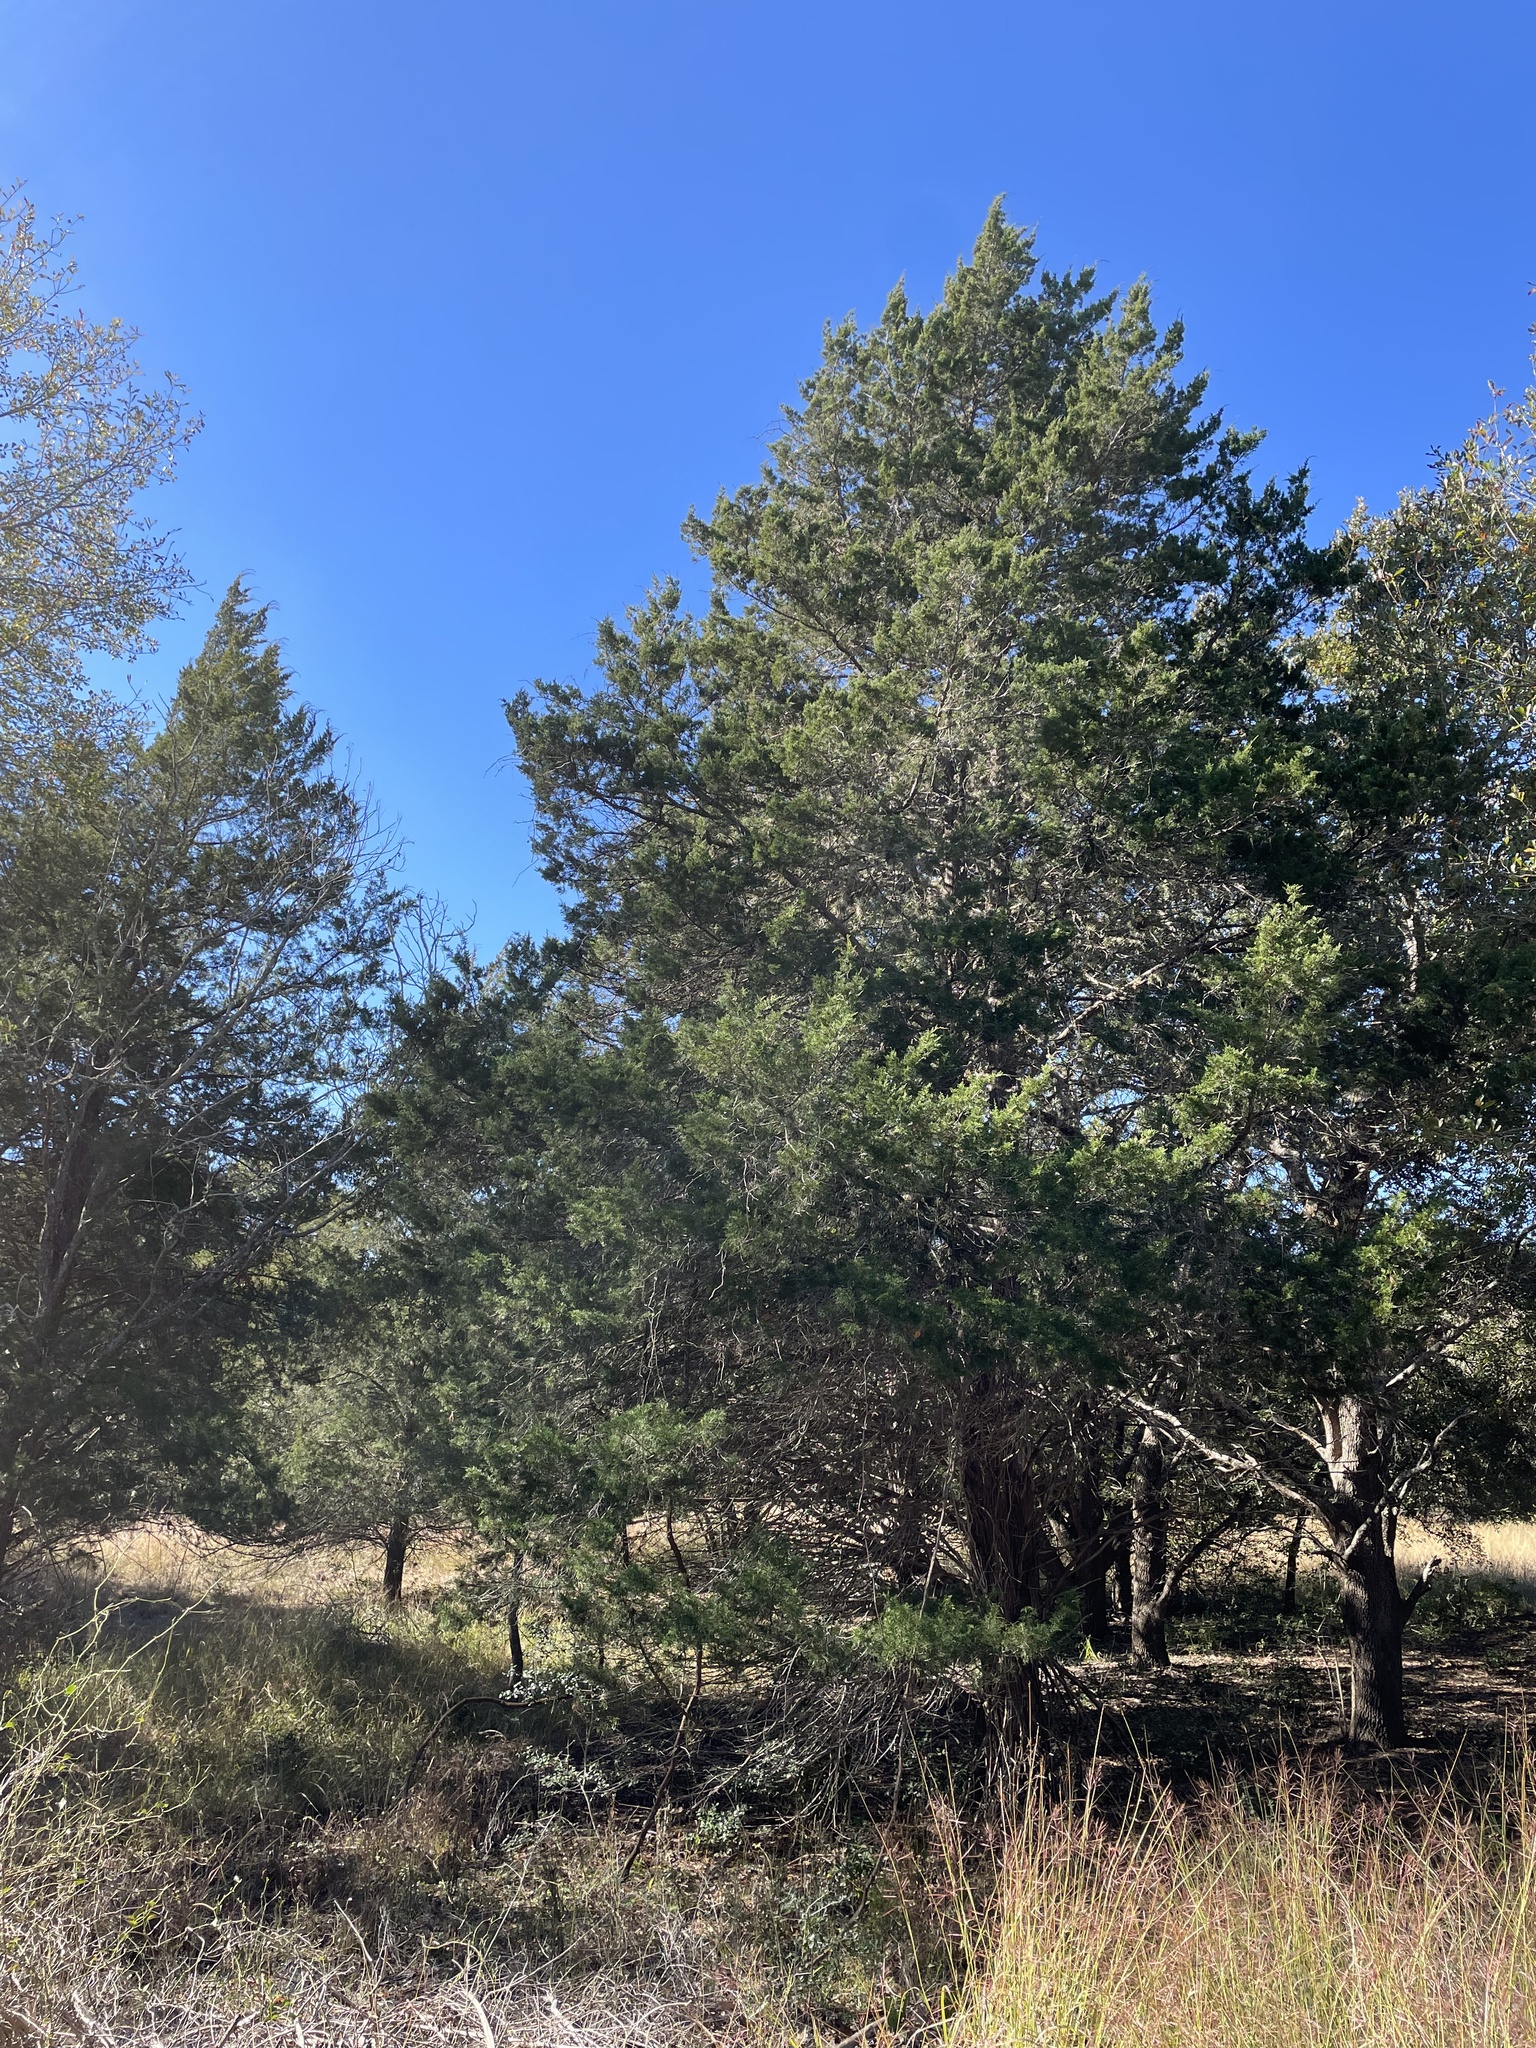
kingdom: Plantae
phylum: Tracheophyta
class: Pinopsida
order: Pinales
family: Cupressaceae
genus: Juniperus
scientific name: Juniperus virginiana
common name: Red juniper
